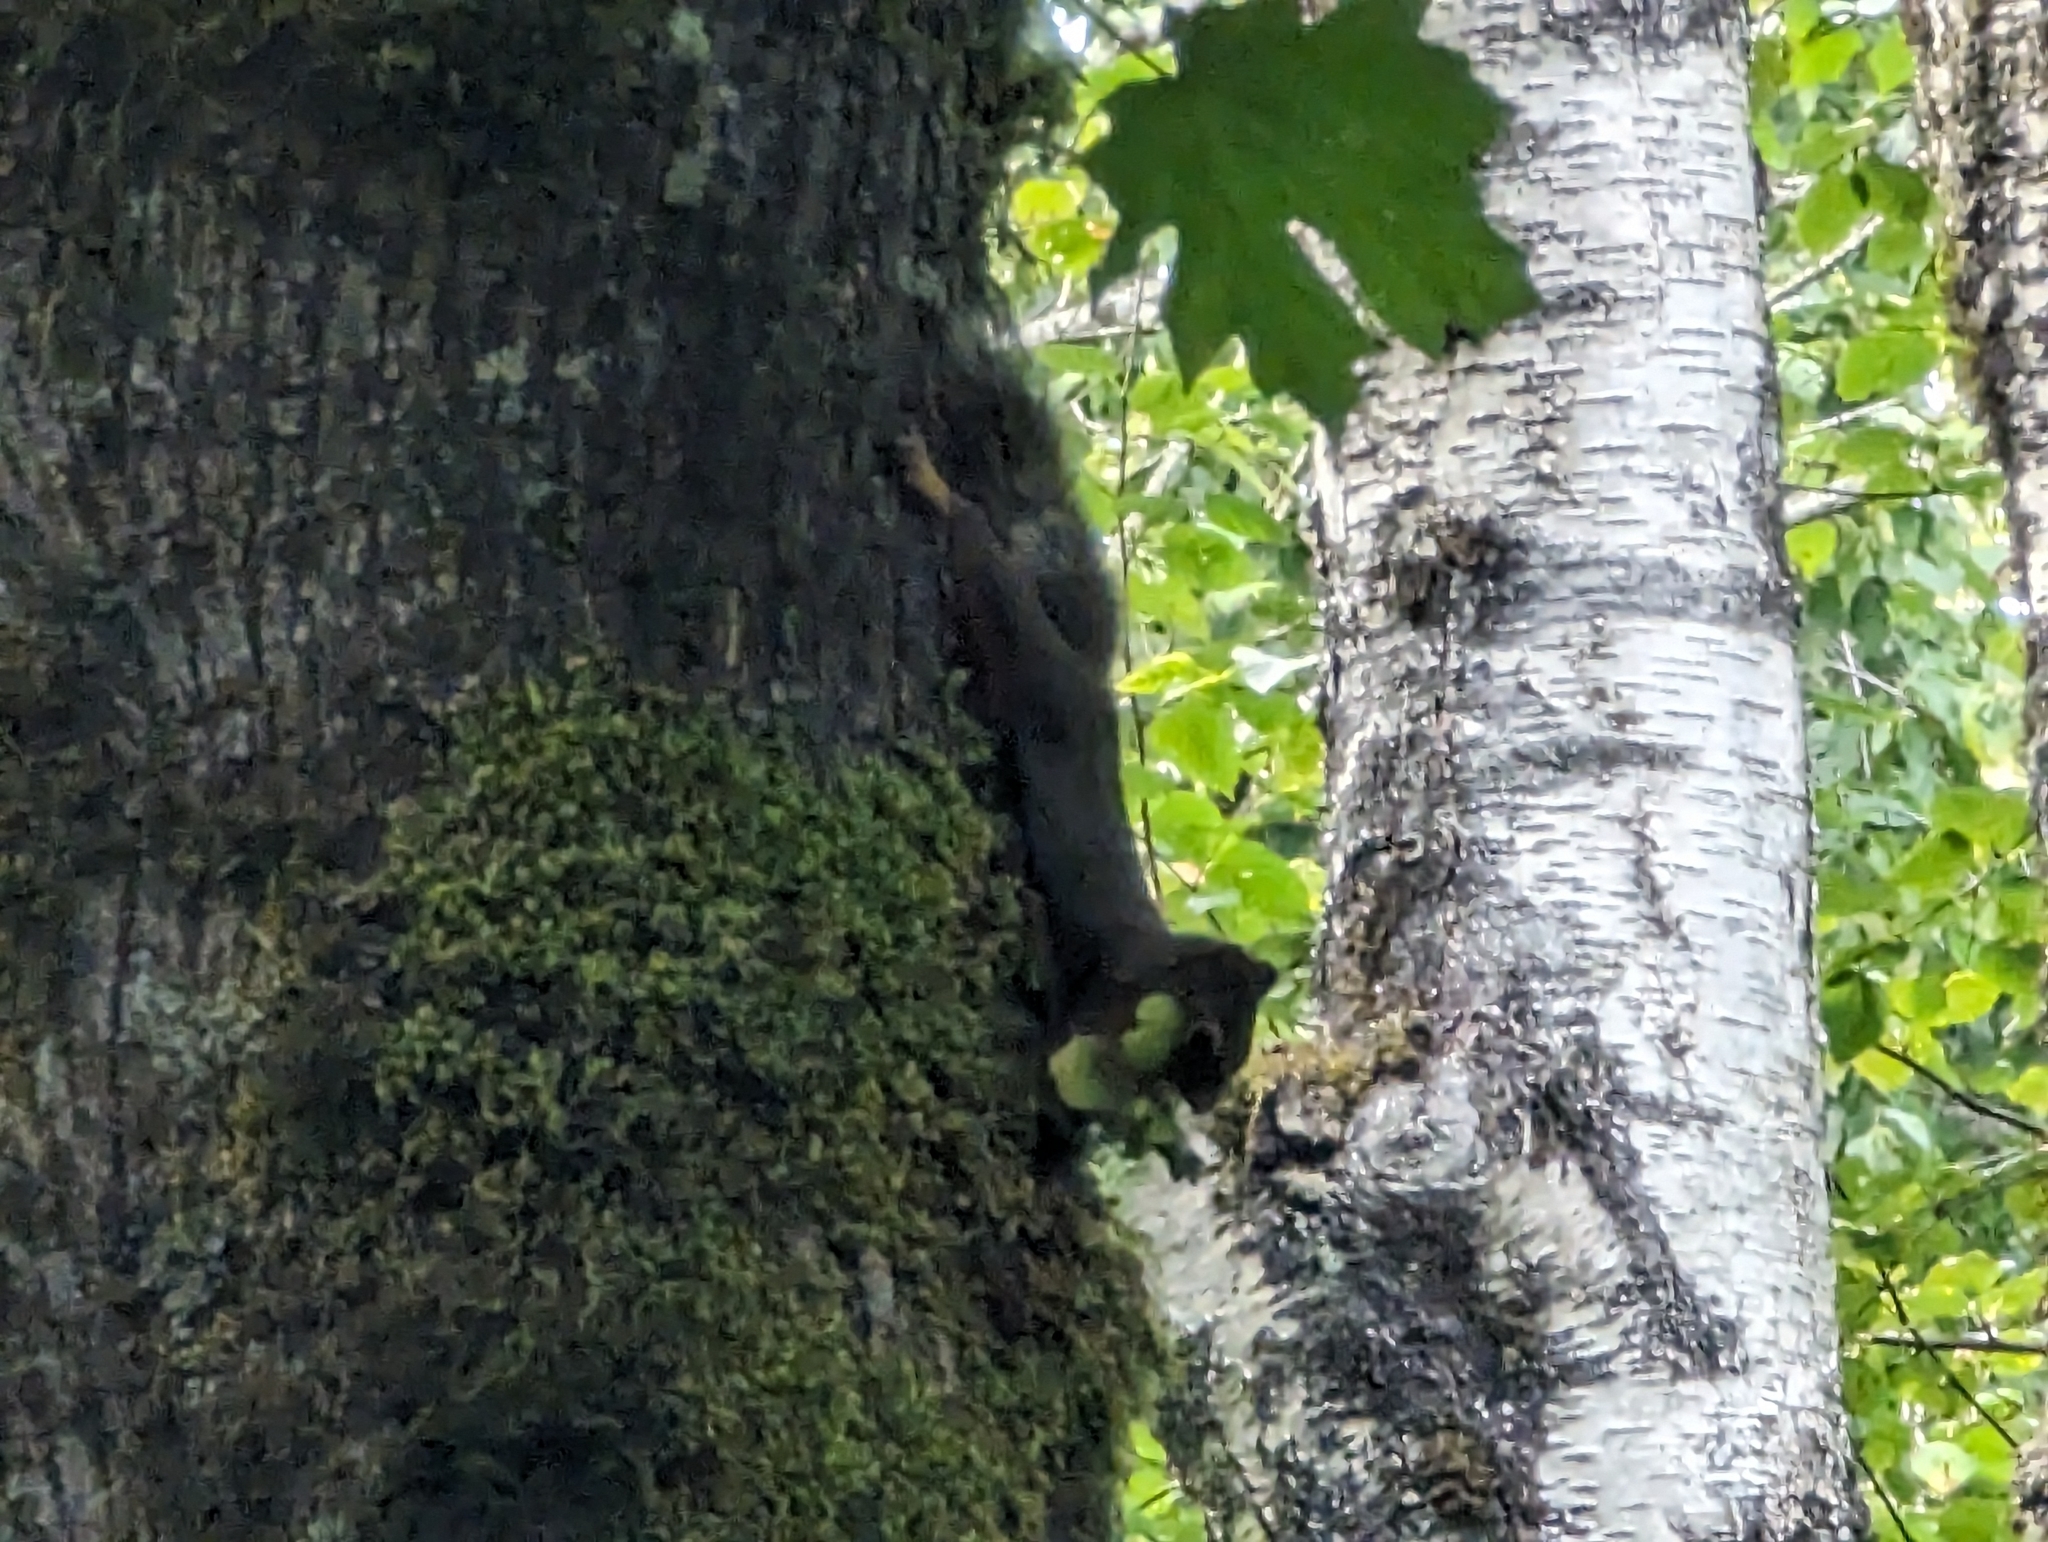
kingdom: Animalia
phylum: Chordata
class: Mammalia
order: Rodentia
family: Sciuridae
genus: Tamiasciurus
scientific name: Tamiasciurus douglasii
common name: Douglas's squirrel
